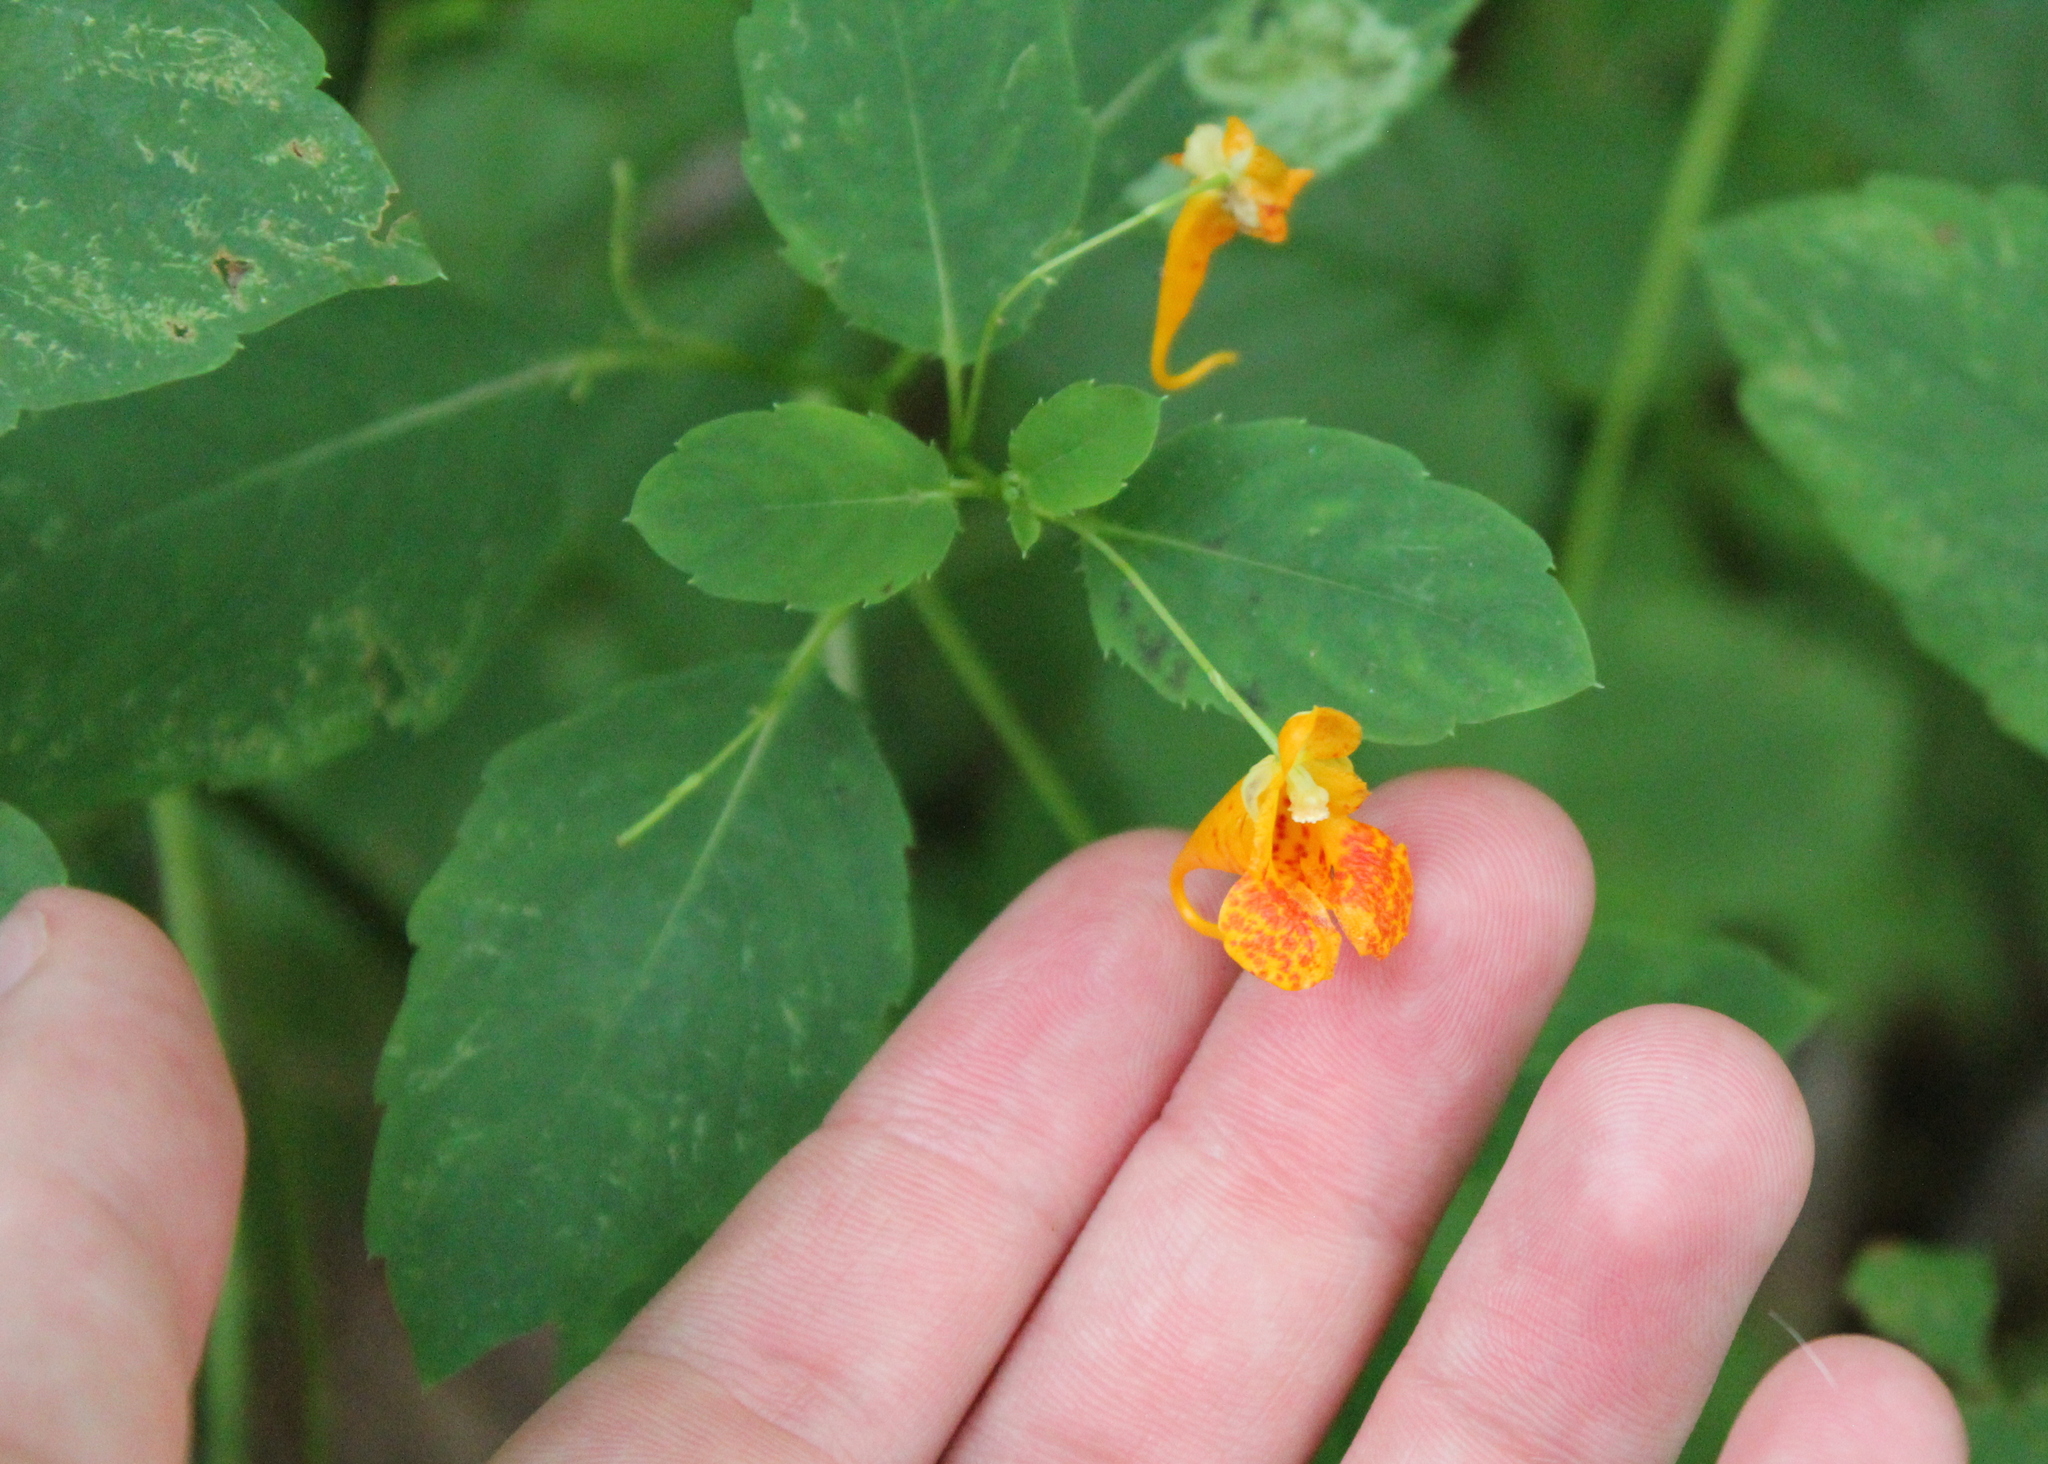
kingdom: Plantae
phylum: Tracheophyta
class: Magnoliopsida
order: Ericales
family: Balsaminaceae
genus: Impatiens
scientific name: Impatiens capensis
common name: Orange balsam
